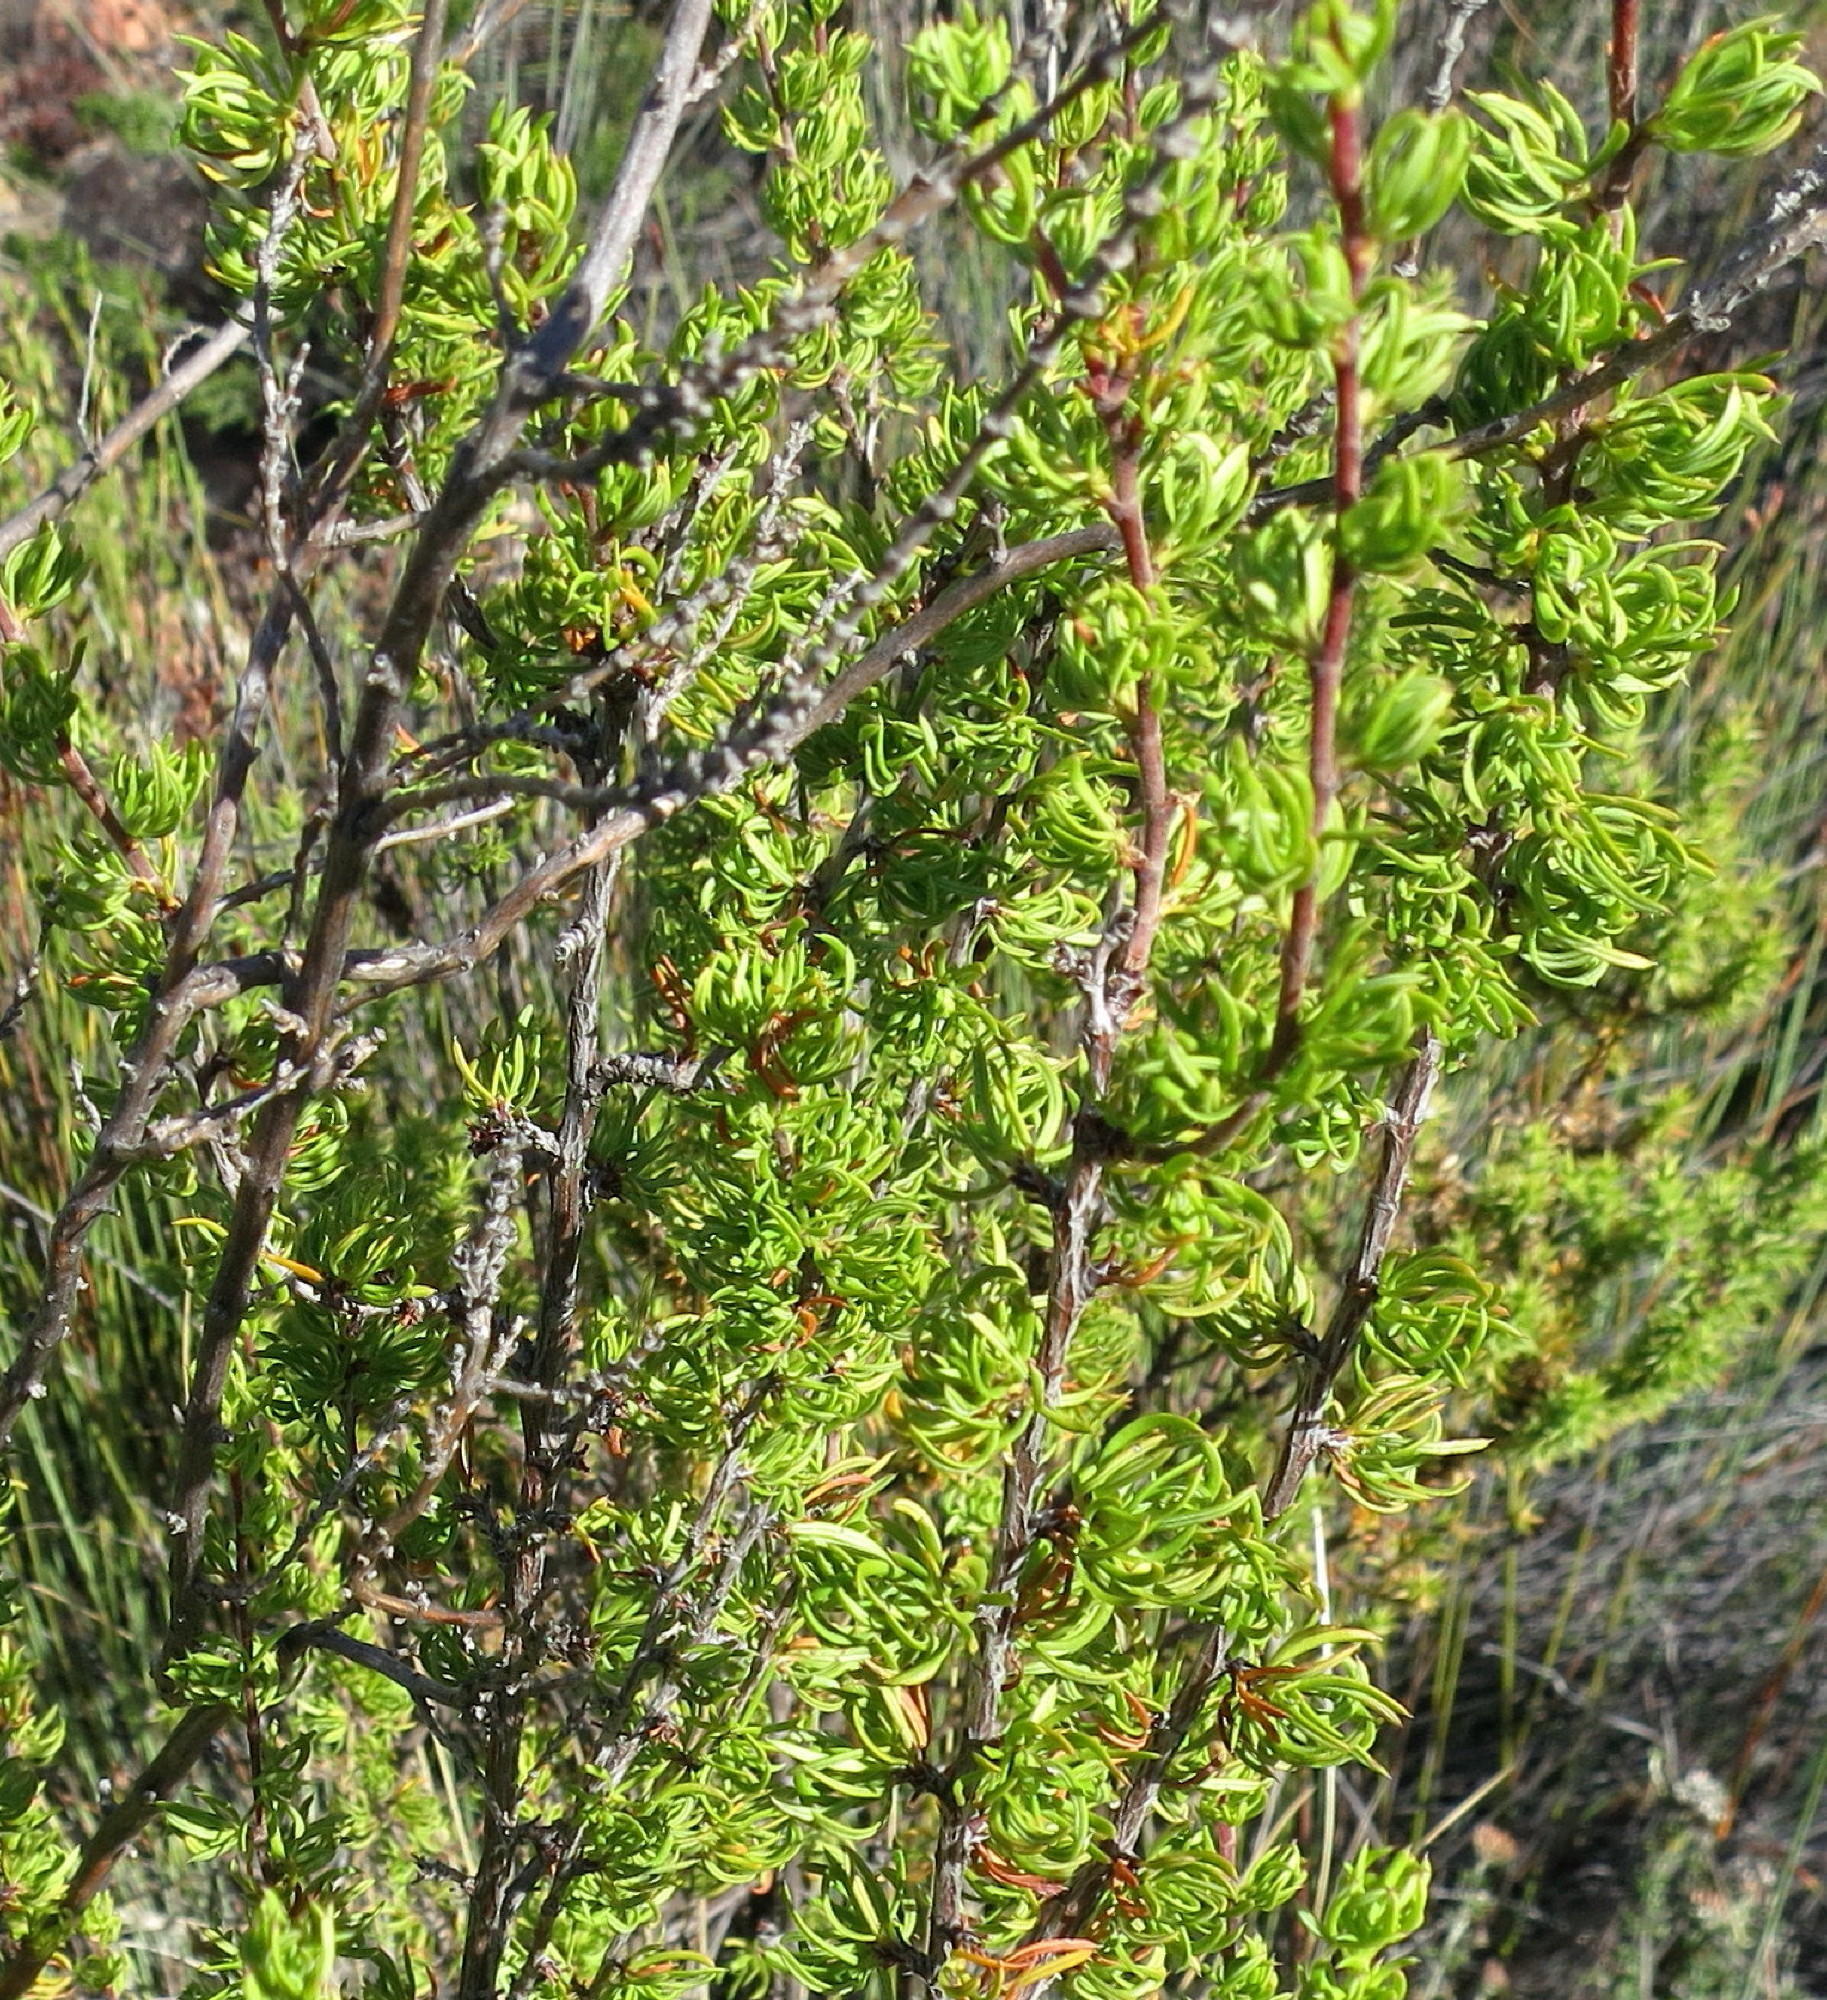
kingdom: Plantae
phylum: Tracheophyta
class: Magnoliopsida
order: Rosales
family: Rosaceae
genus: Cliffortia
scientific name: Cliffortia arcuata
